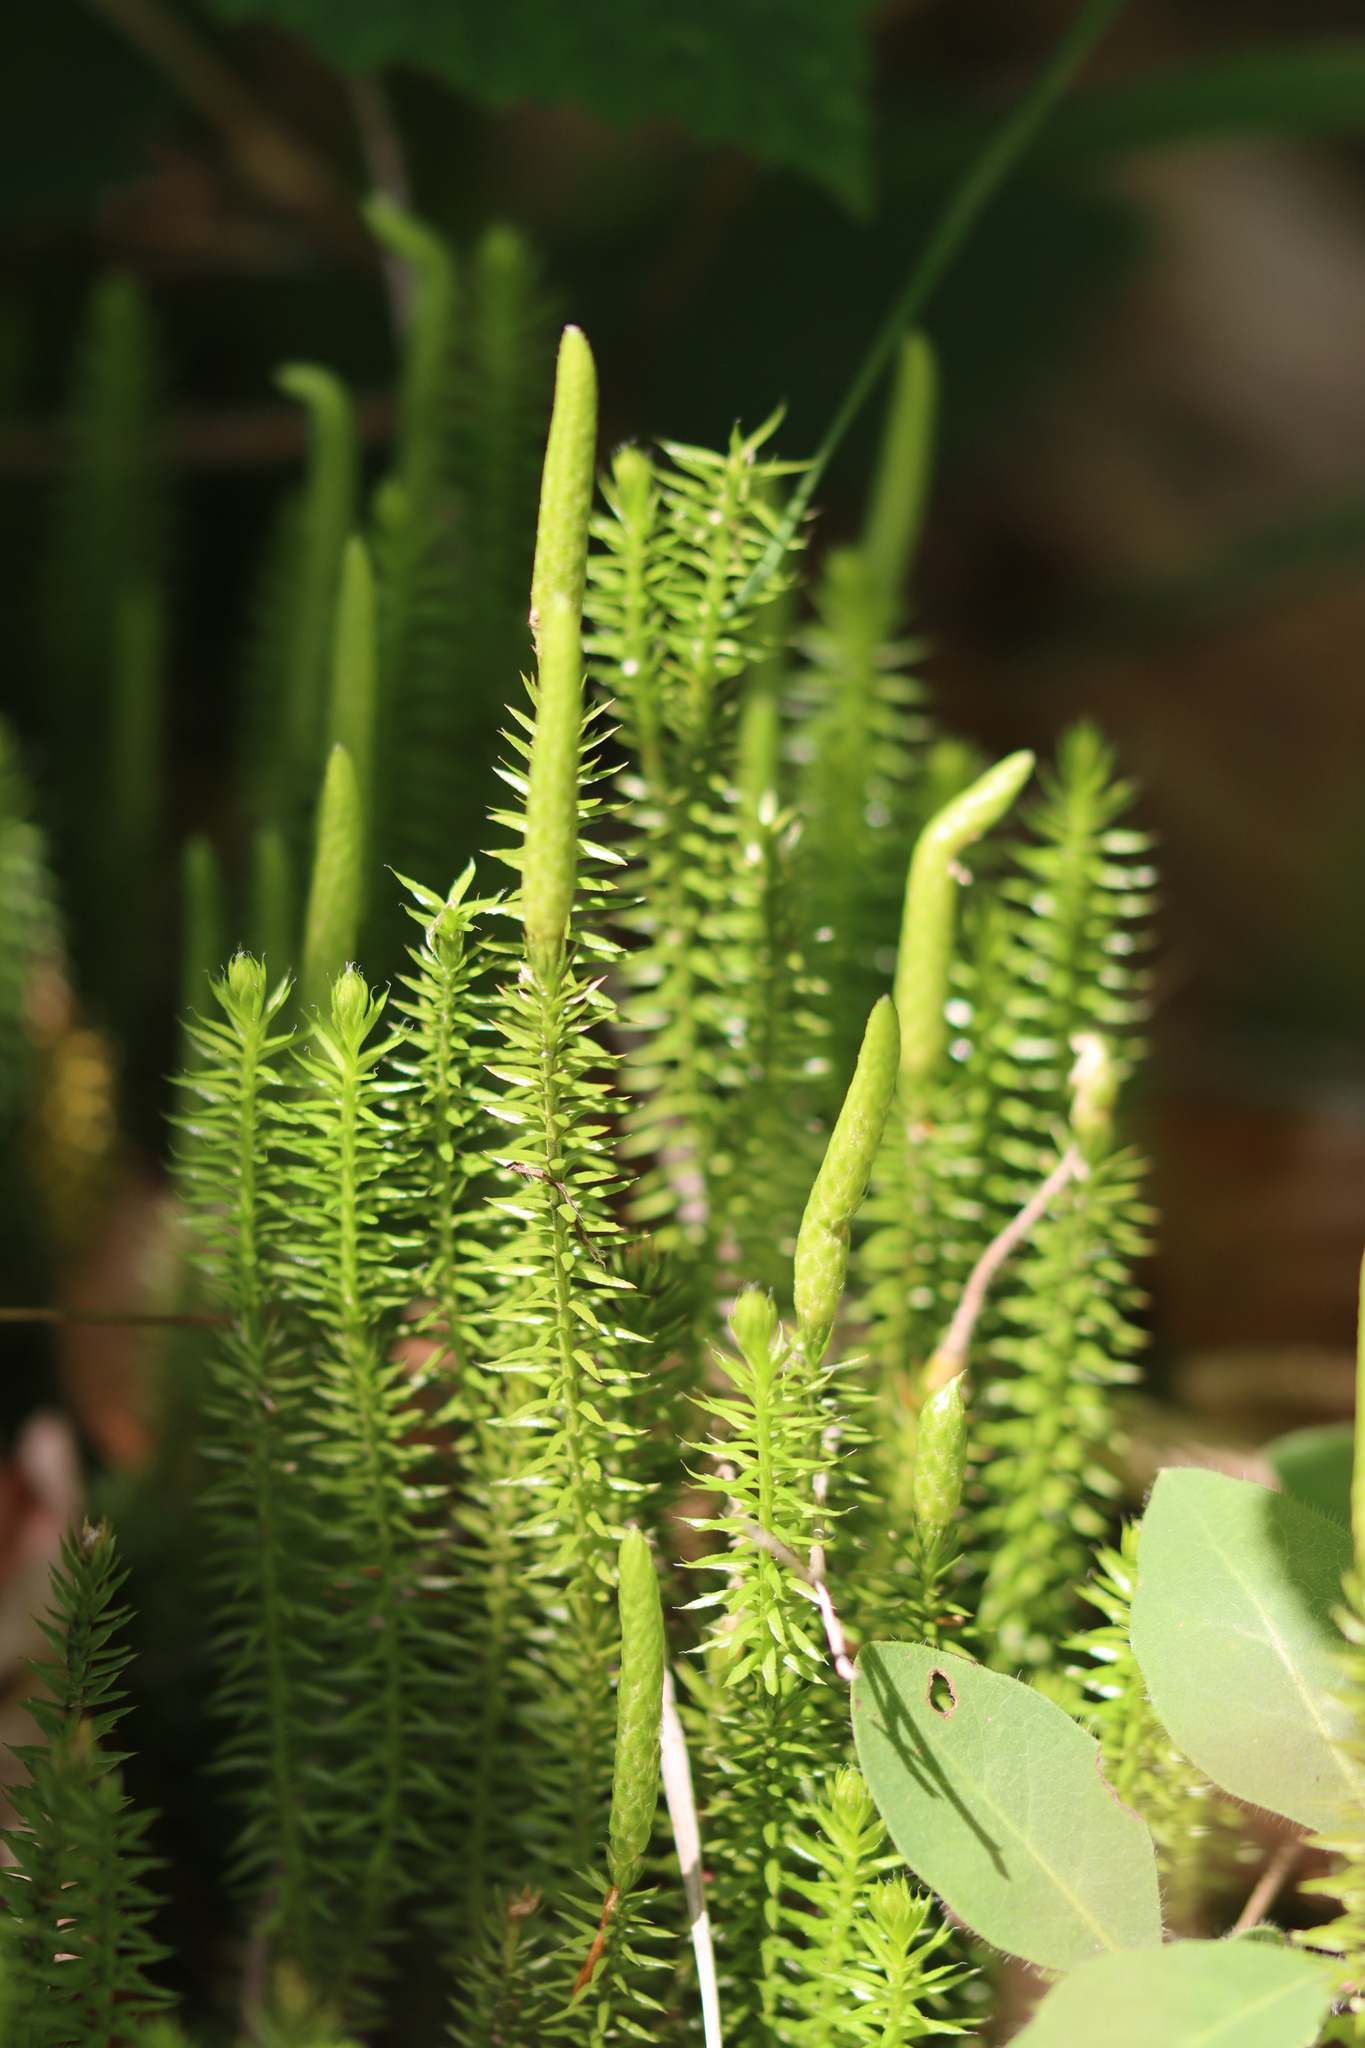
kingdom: Plantae
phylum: Tracheophyta
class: Lycopodiopsida
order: Lycopodiales
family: Lycopodiaceae
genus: Spinulum
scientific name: Spinulum annotinum
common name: Interrupted club-moss
